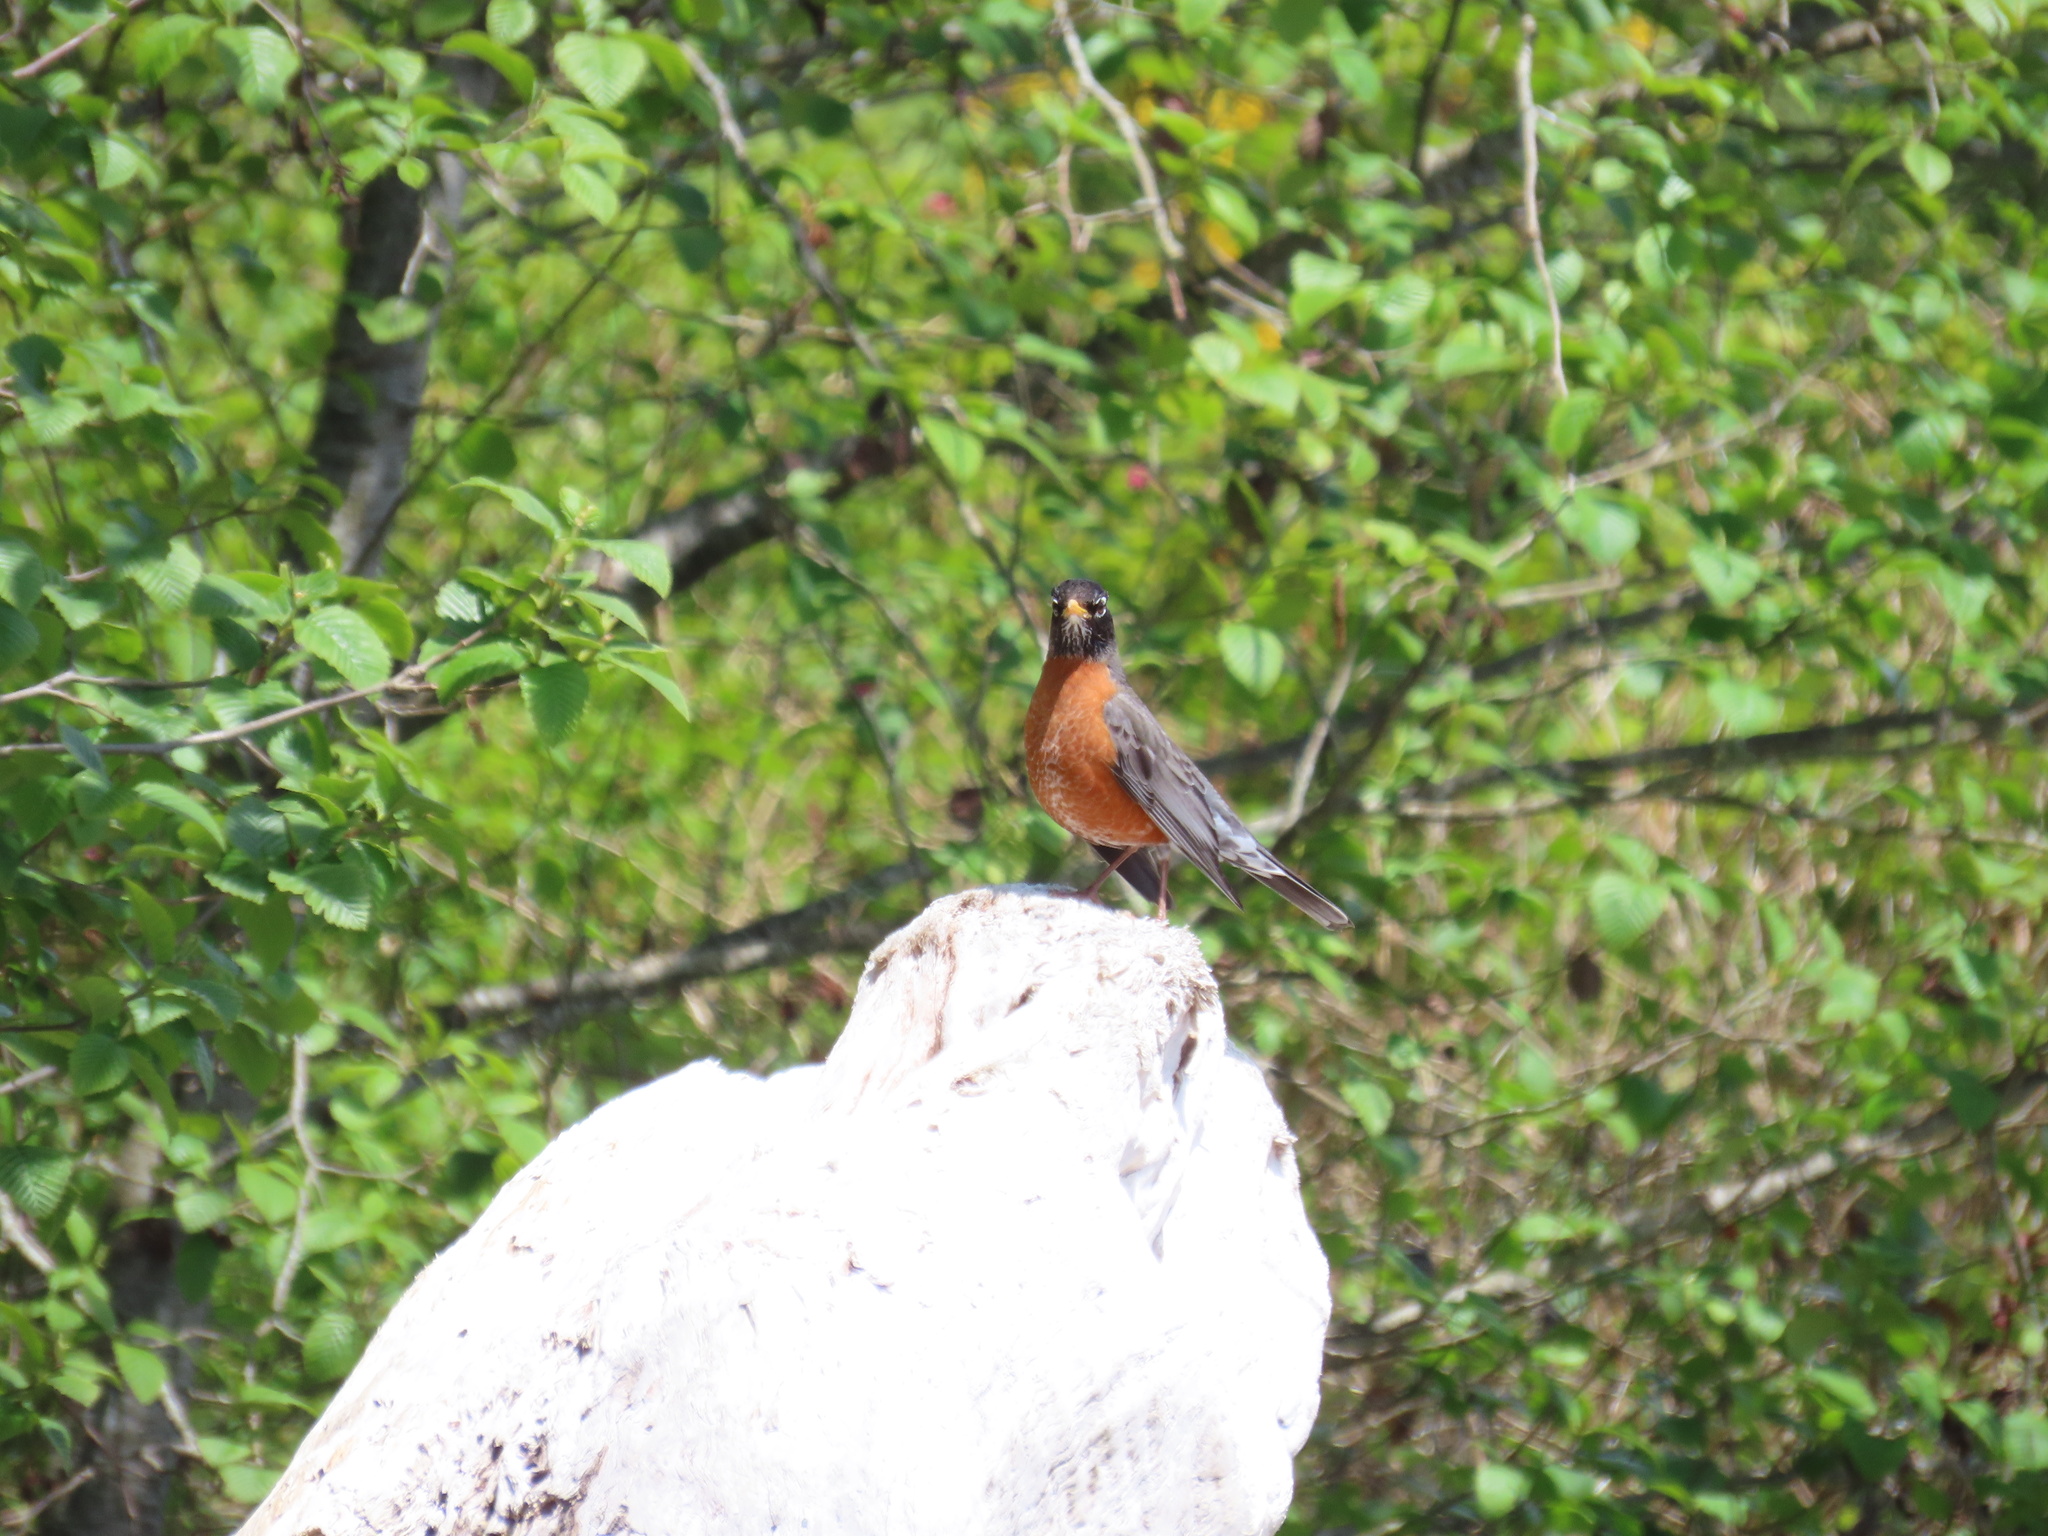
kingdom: Animalia
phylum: Chordata
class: Aves
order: Passeriformes
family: Turdidae
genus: Turdus
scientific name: Turdus migratorius
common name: American robin
